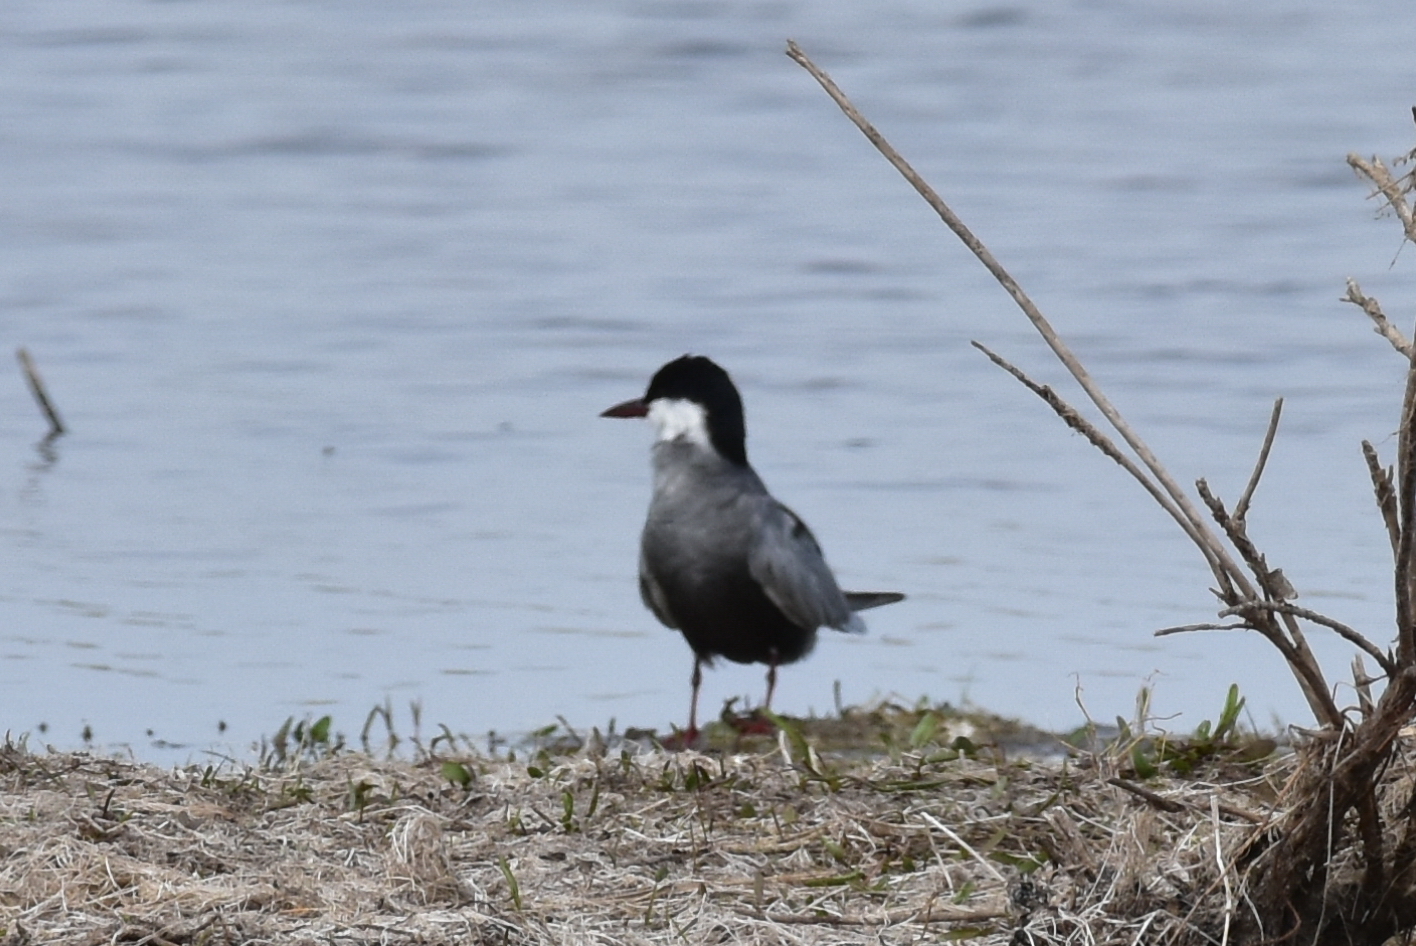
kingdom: Animalia
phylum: Chordata
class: Aves
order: Charadriiformes
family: Laridae
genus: Chlidonias
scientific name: Chlidonias hybrida
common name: Whiskered tern
